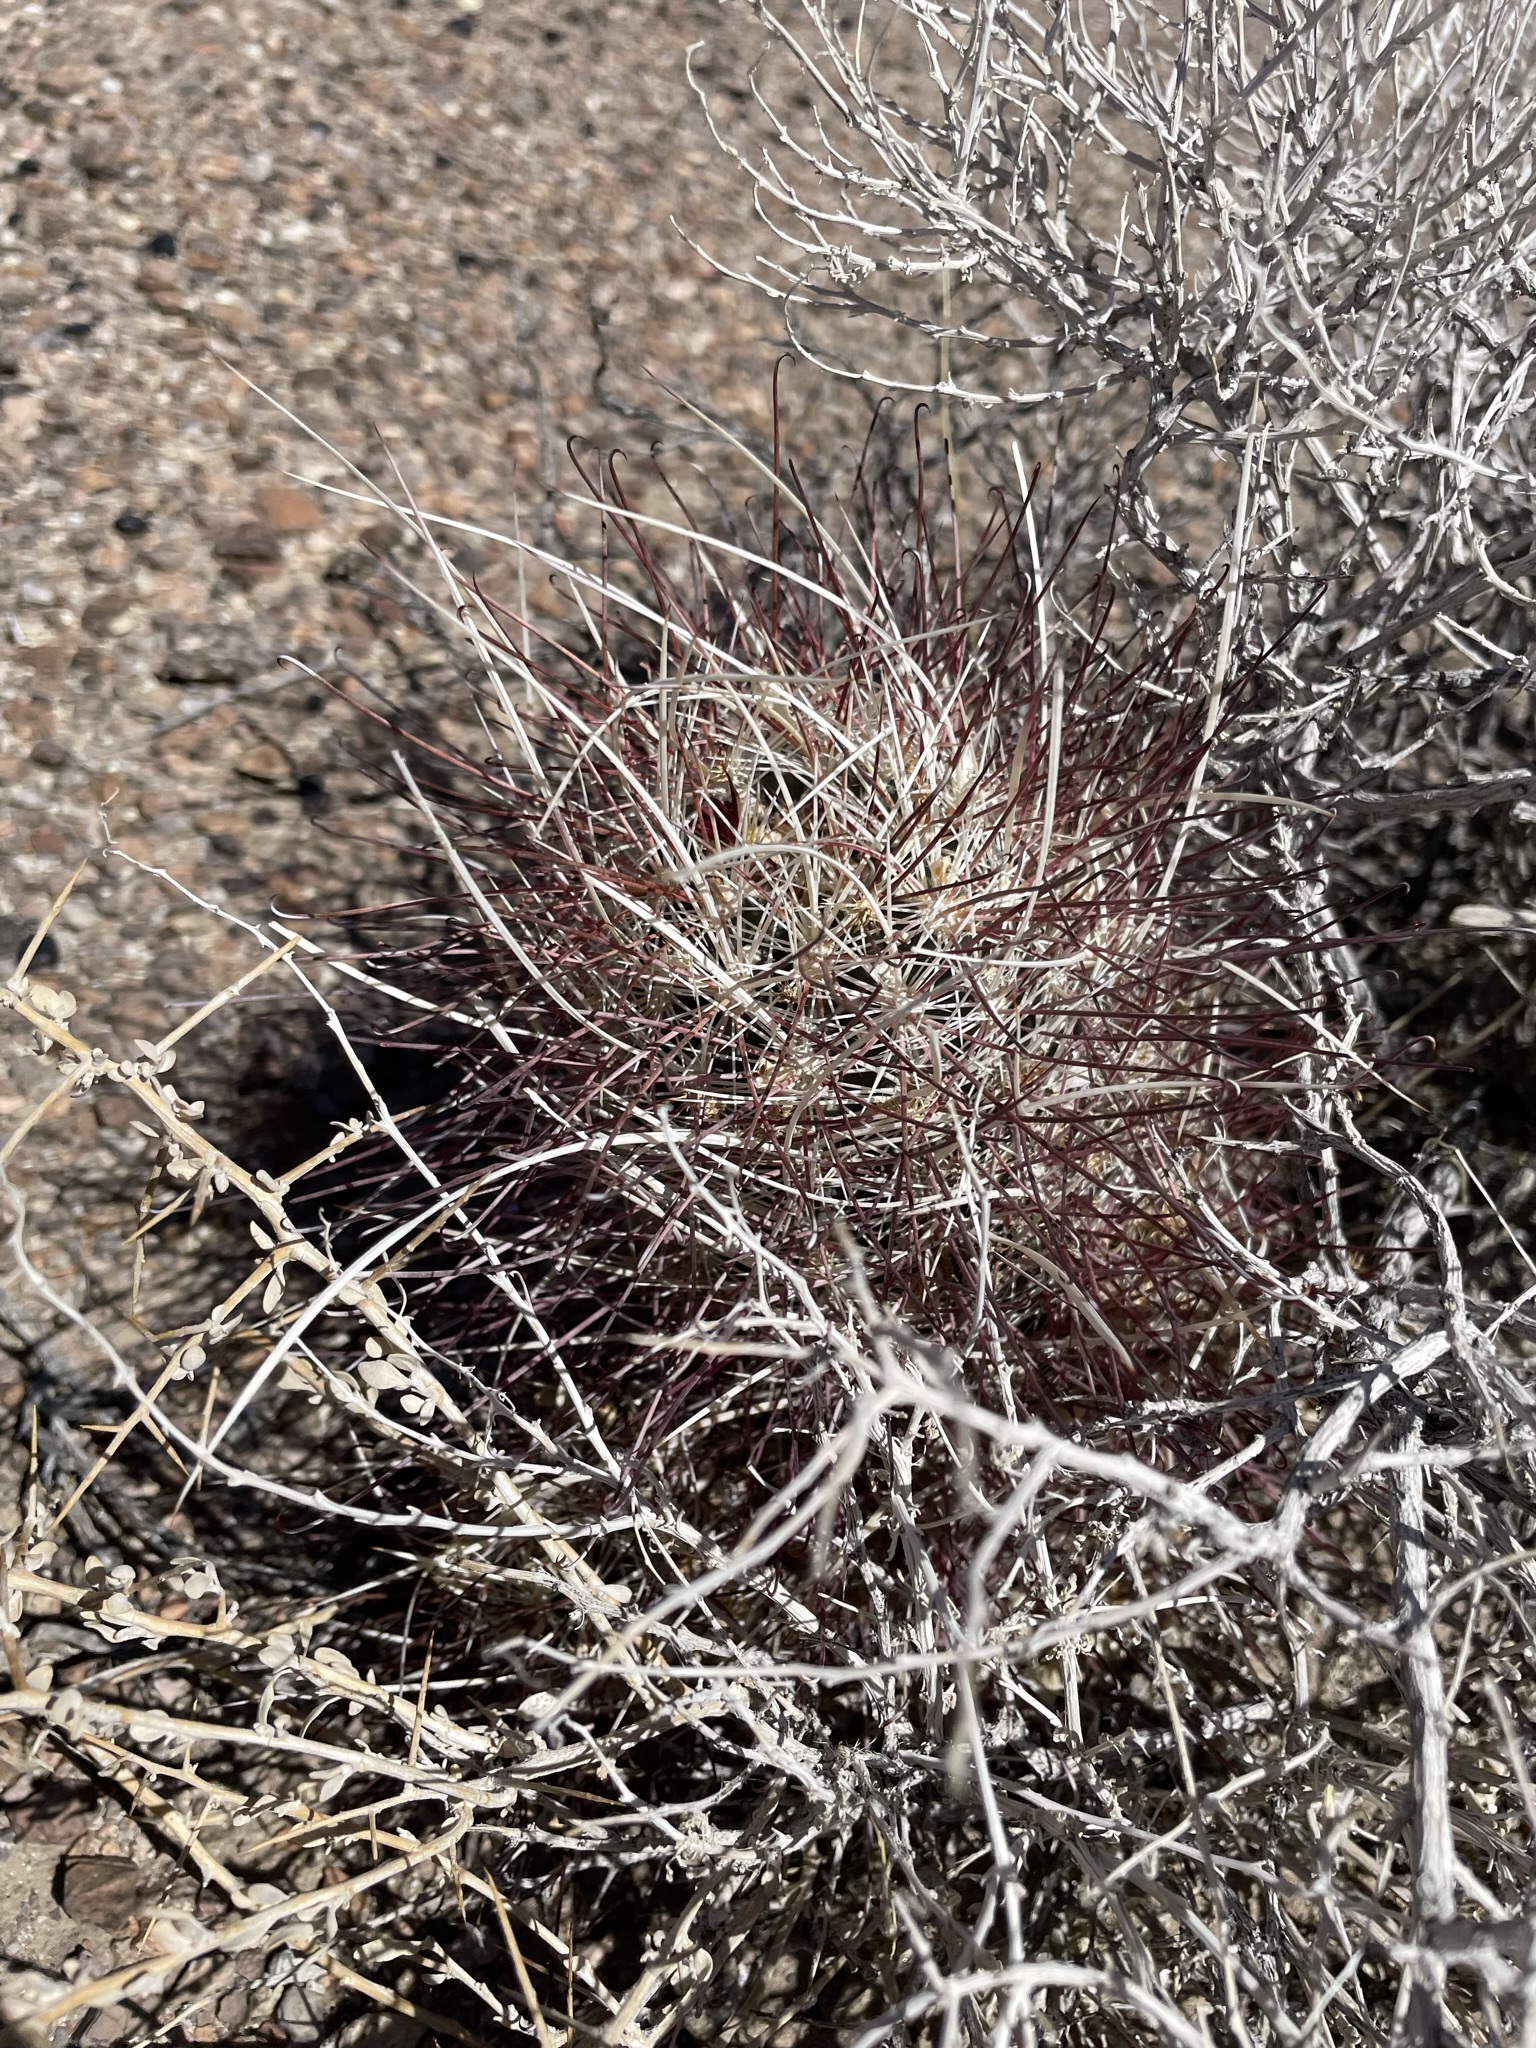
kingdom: Plantae
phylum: Tracheophyta
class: Magnoliopsida
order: Caryophyllales
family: Cactaceae
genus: Sclerocactus
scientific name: Sclerocactus polyancistrus
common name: Mohave fishhook cactus
